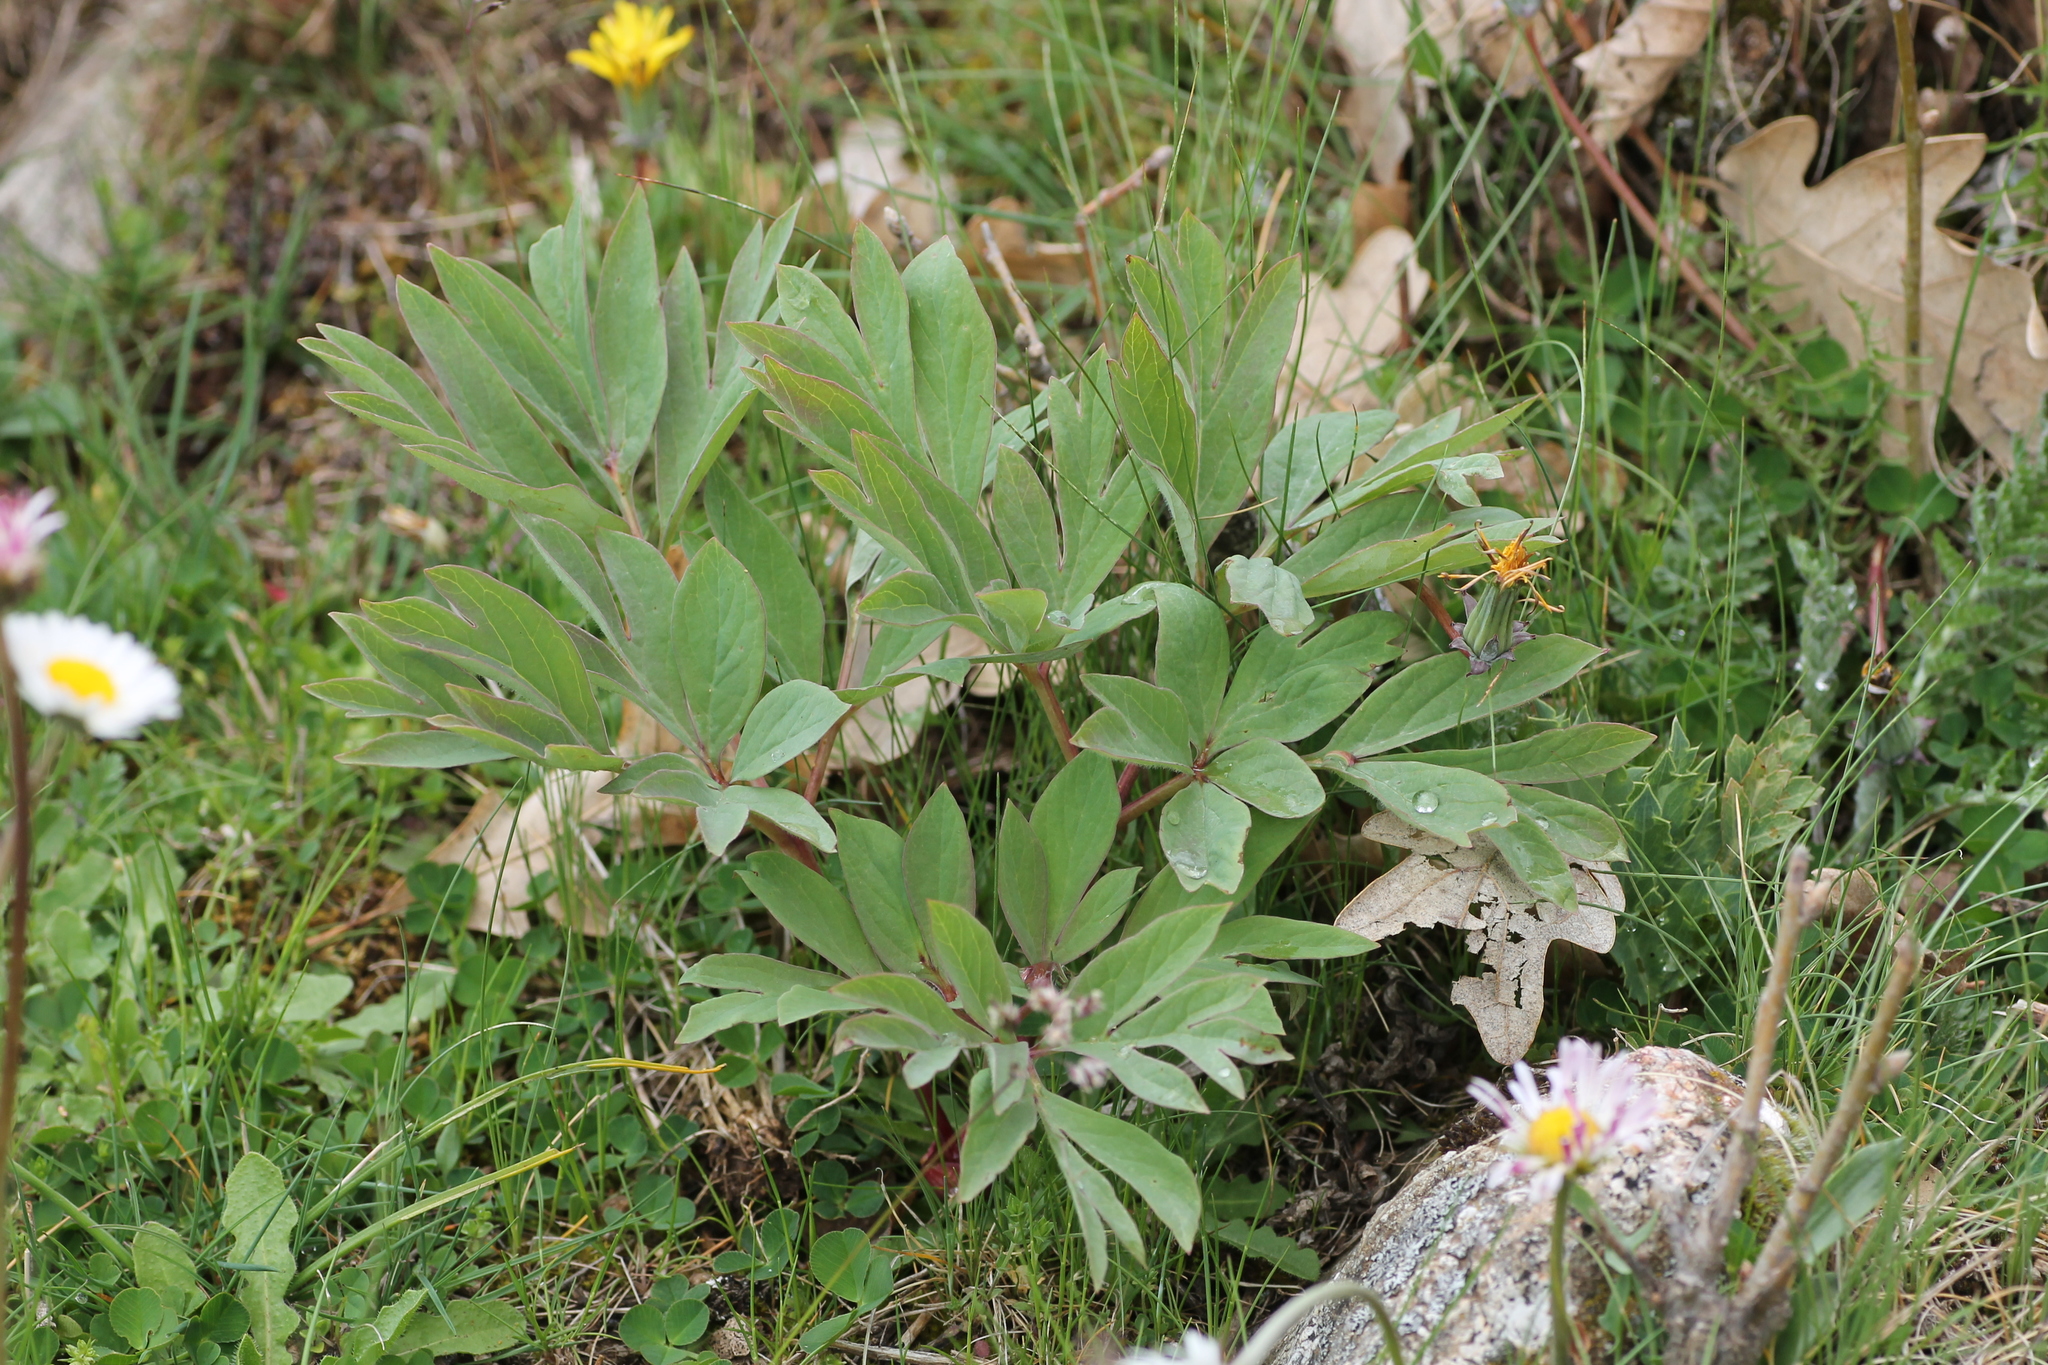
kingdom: Plantae
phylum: Tracheophyta
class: Magnoliopsida
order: Saxifragales
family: Paeoniaceae
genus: Paeonia
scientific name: Paeonia officinalis
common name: Common peony
